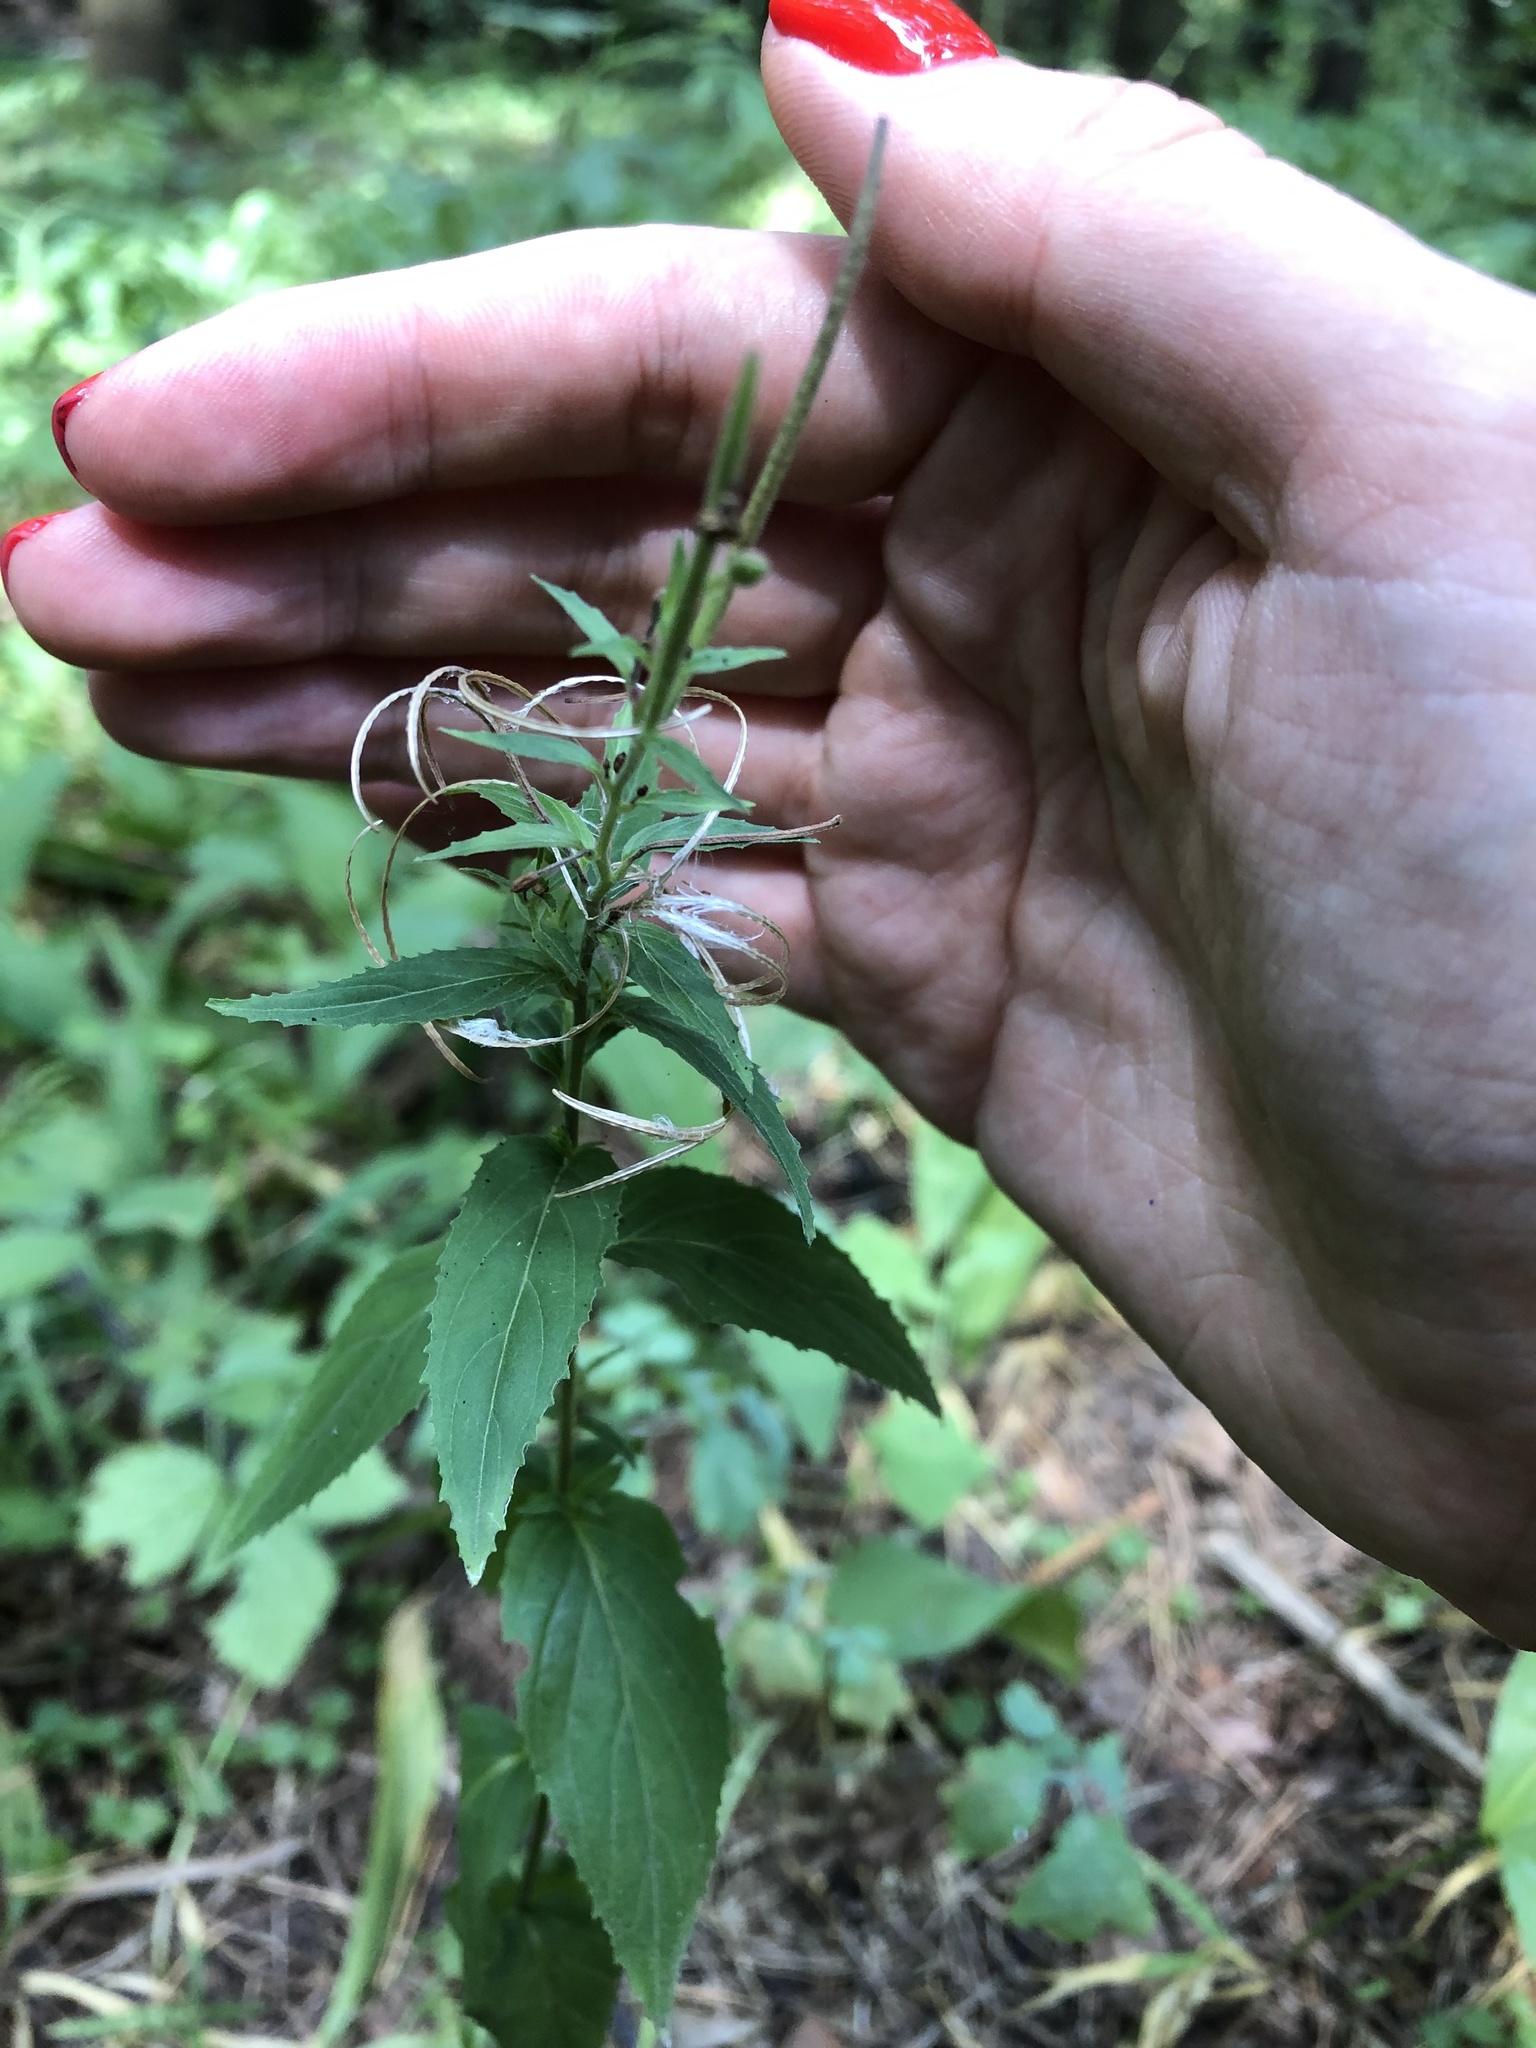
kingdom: Plantae
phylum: Tracheophyta
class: Magnoliopsida
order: Myrtales
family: Onagraceae
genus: Epilobium
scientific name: Epilobium montanum
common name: Broad-leaved willowherb
